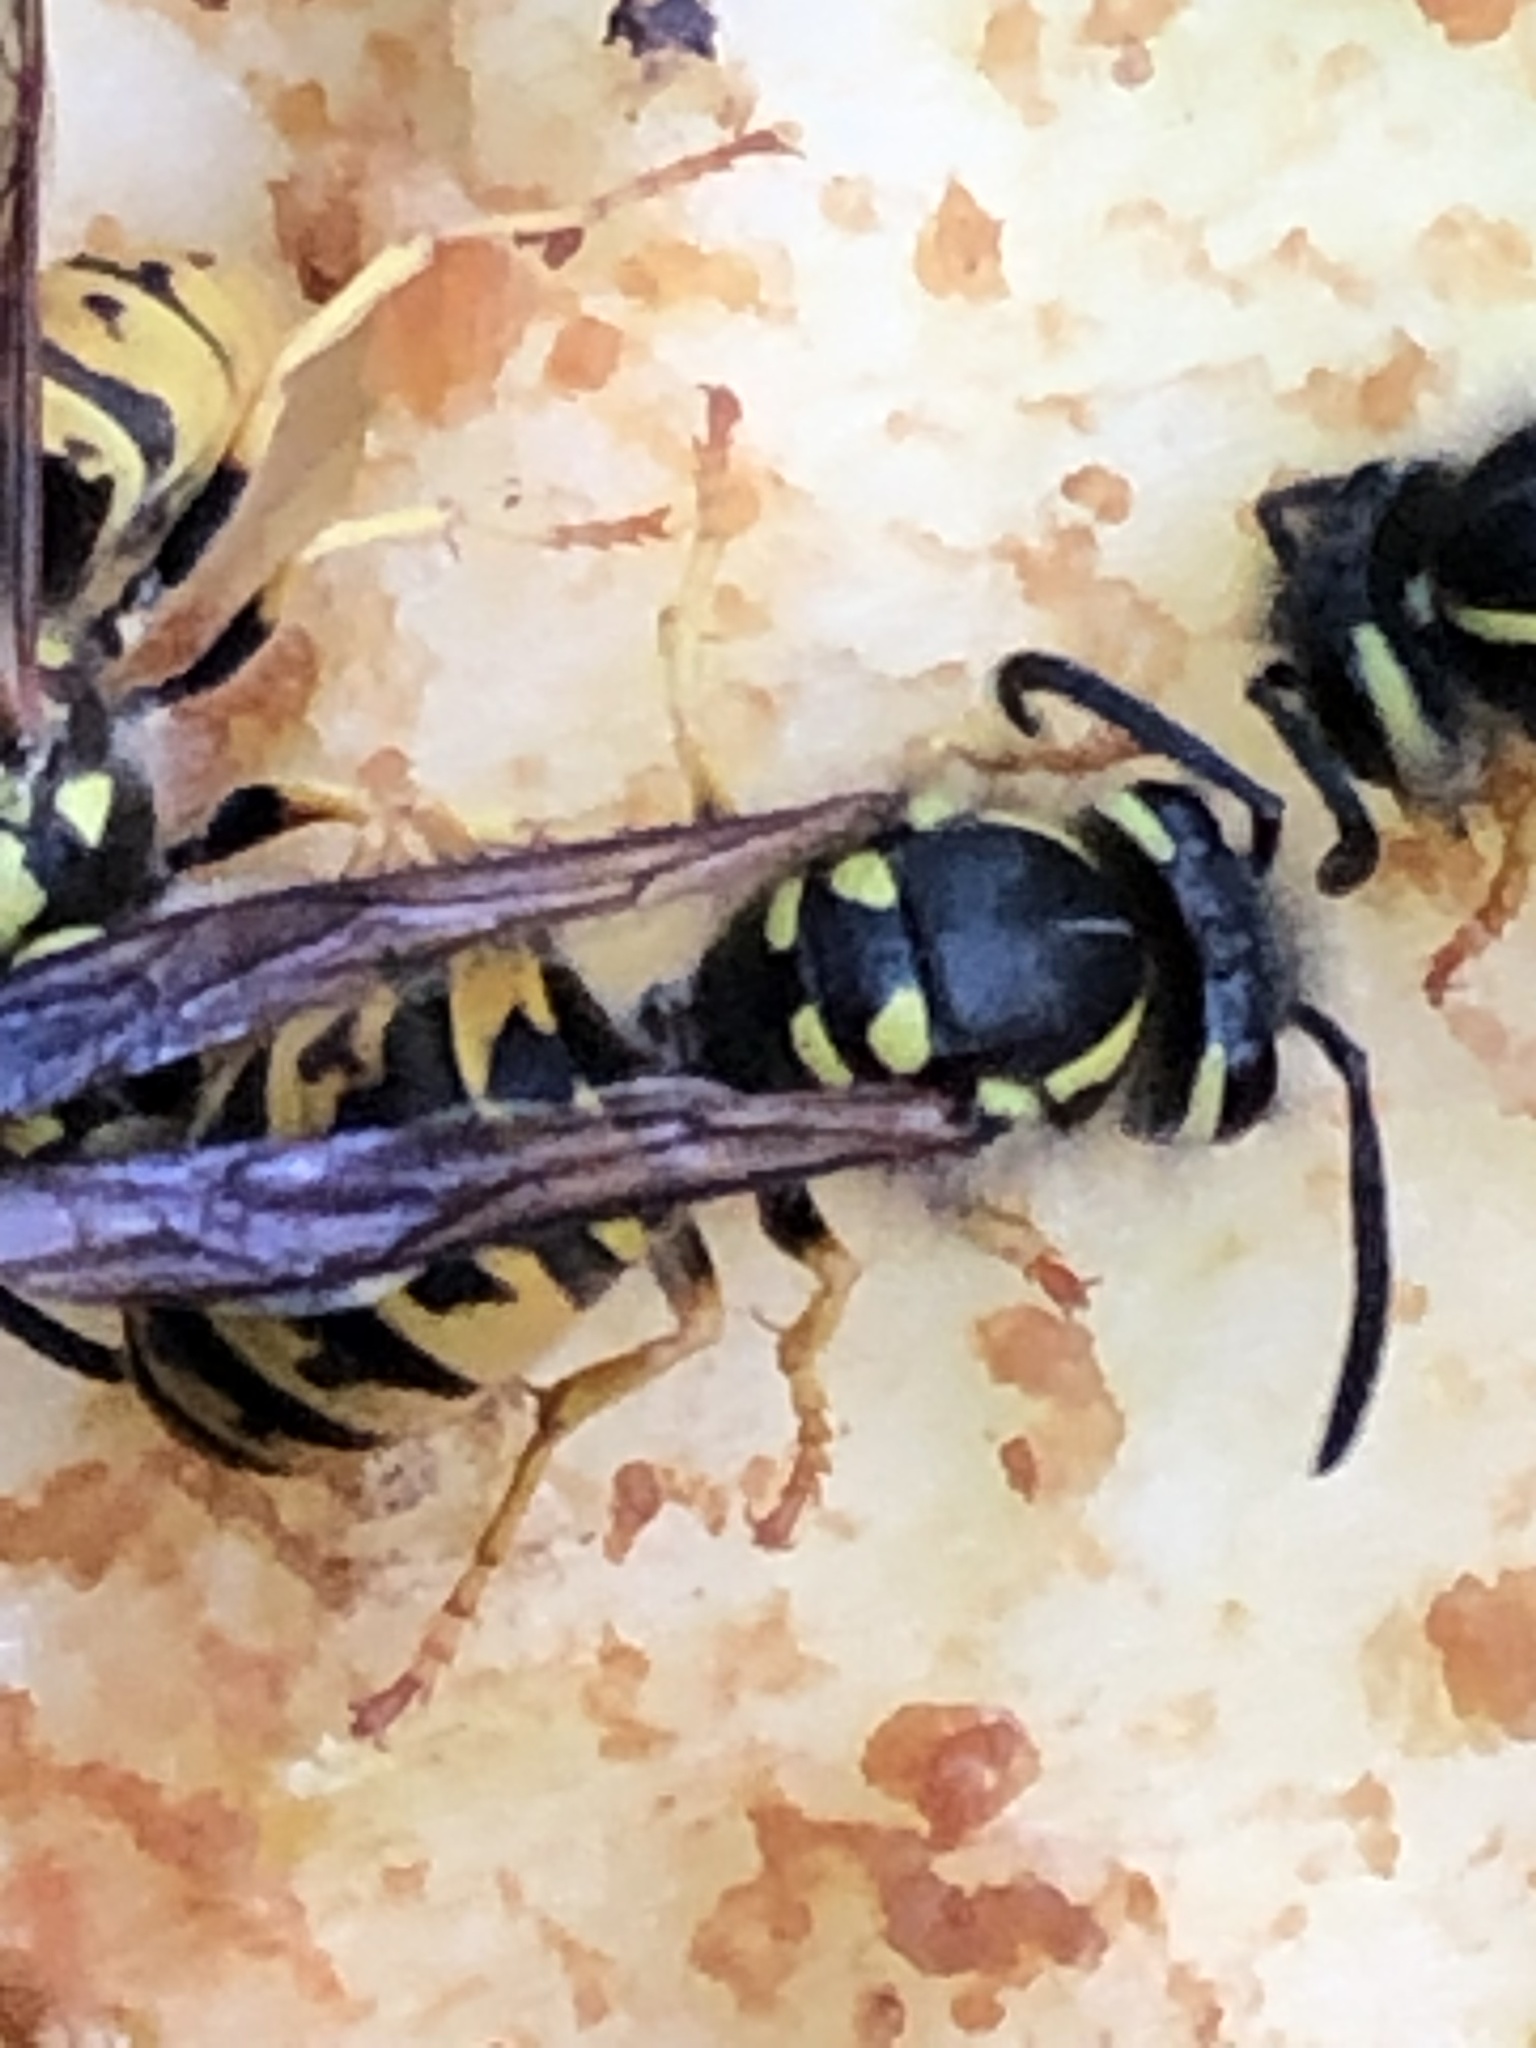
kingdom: Animalia
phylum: Arthropoda
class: Insecta
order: Hymenoptera
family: Vespidae
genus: Vespula
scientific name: Vespula germanica
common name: German wasp
